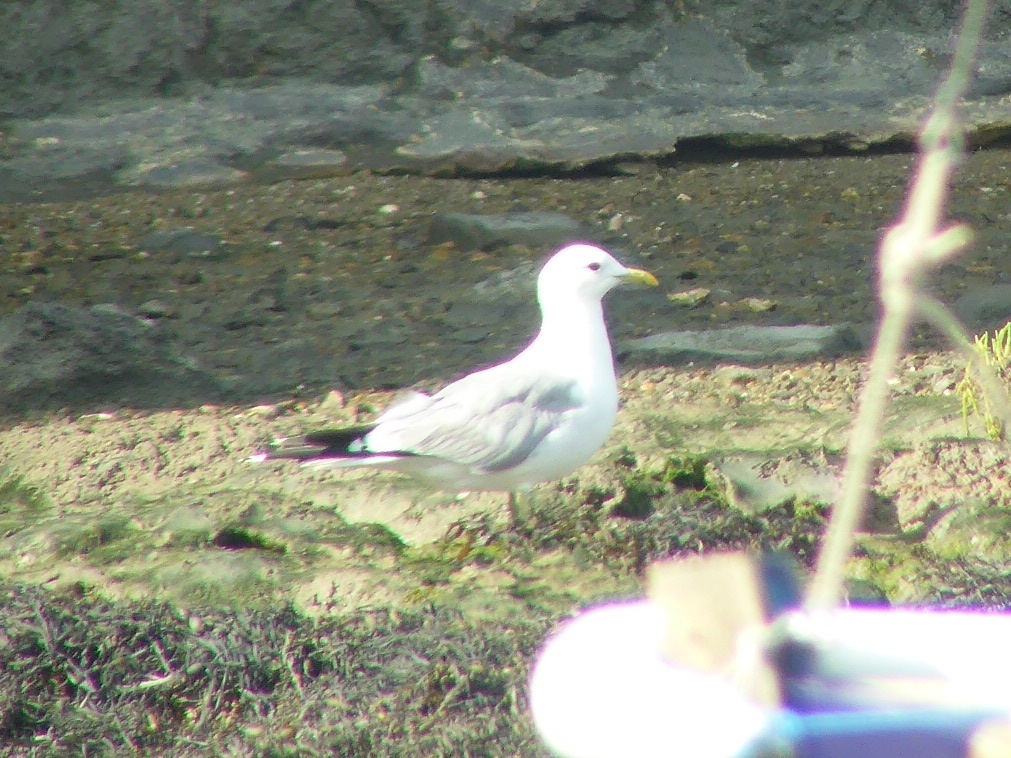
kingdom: Animalia
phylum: Chordata
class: Aves
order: Charadriiformes
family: Laridae
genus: Larus
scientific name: Larus canus
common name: Mew gull
